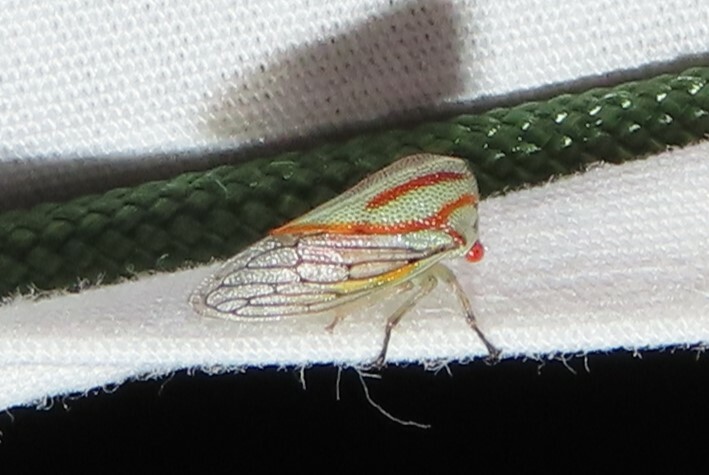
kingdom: Animalia
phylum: Arthropoda
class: Insecta
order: Hemiptera
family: Membracidae
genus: Platycotis
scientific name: Platycotis vittatus
